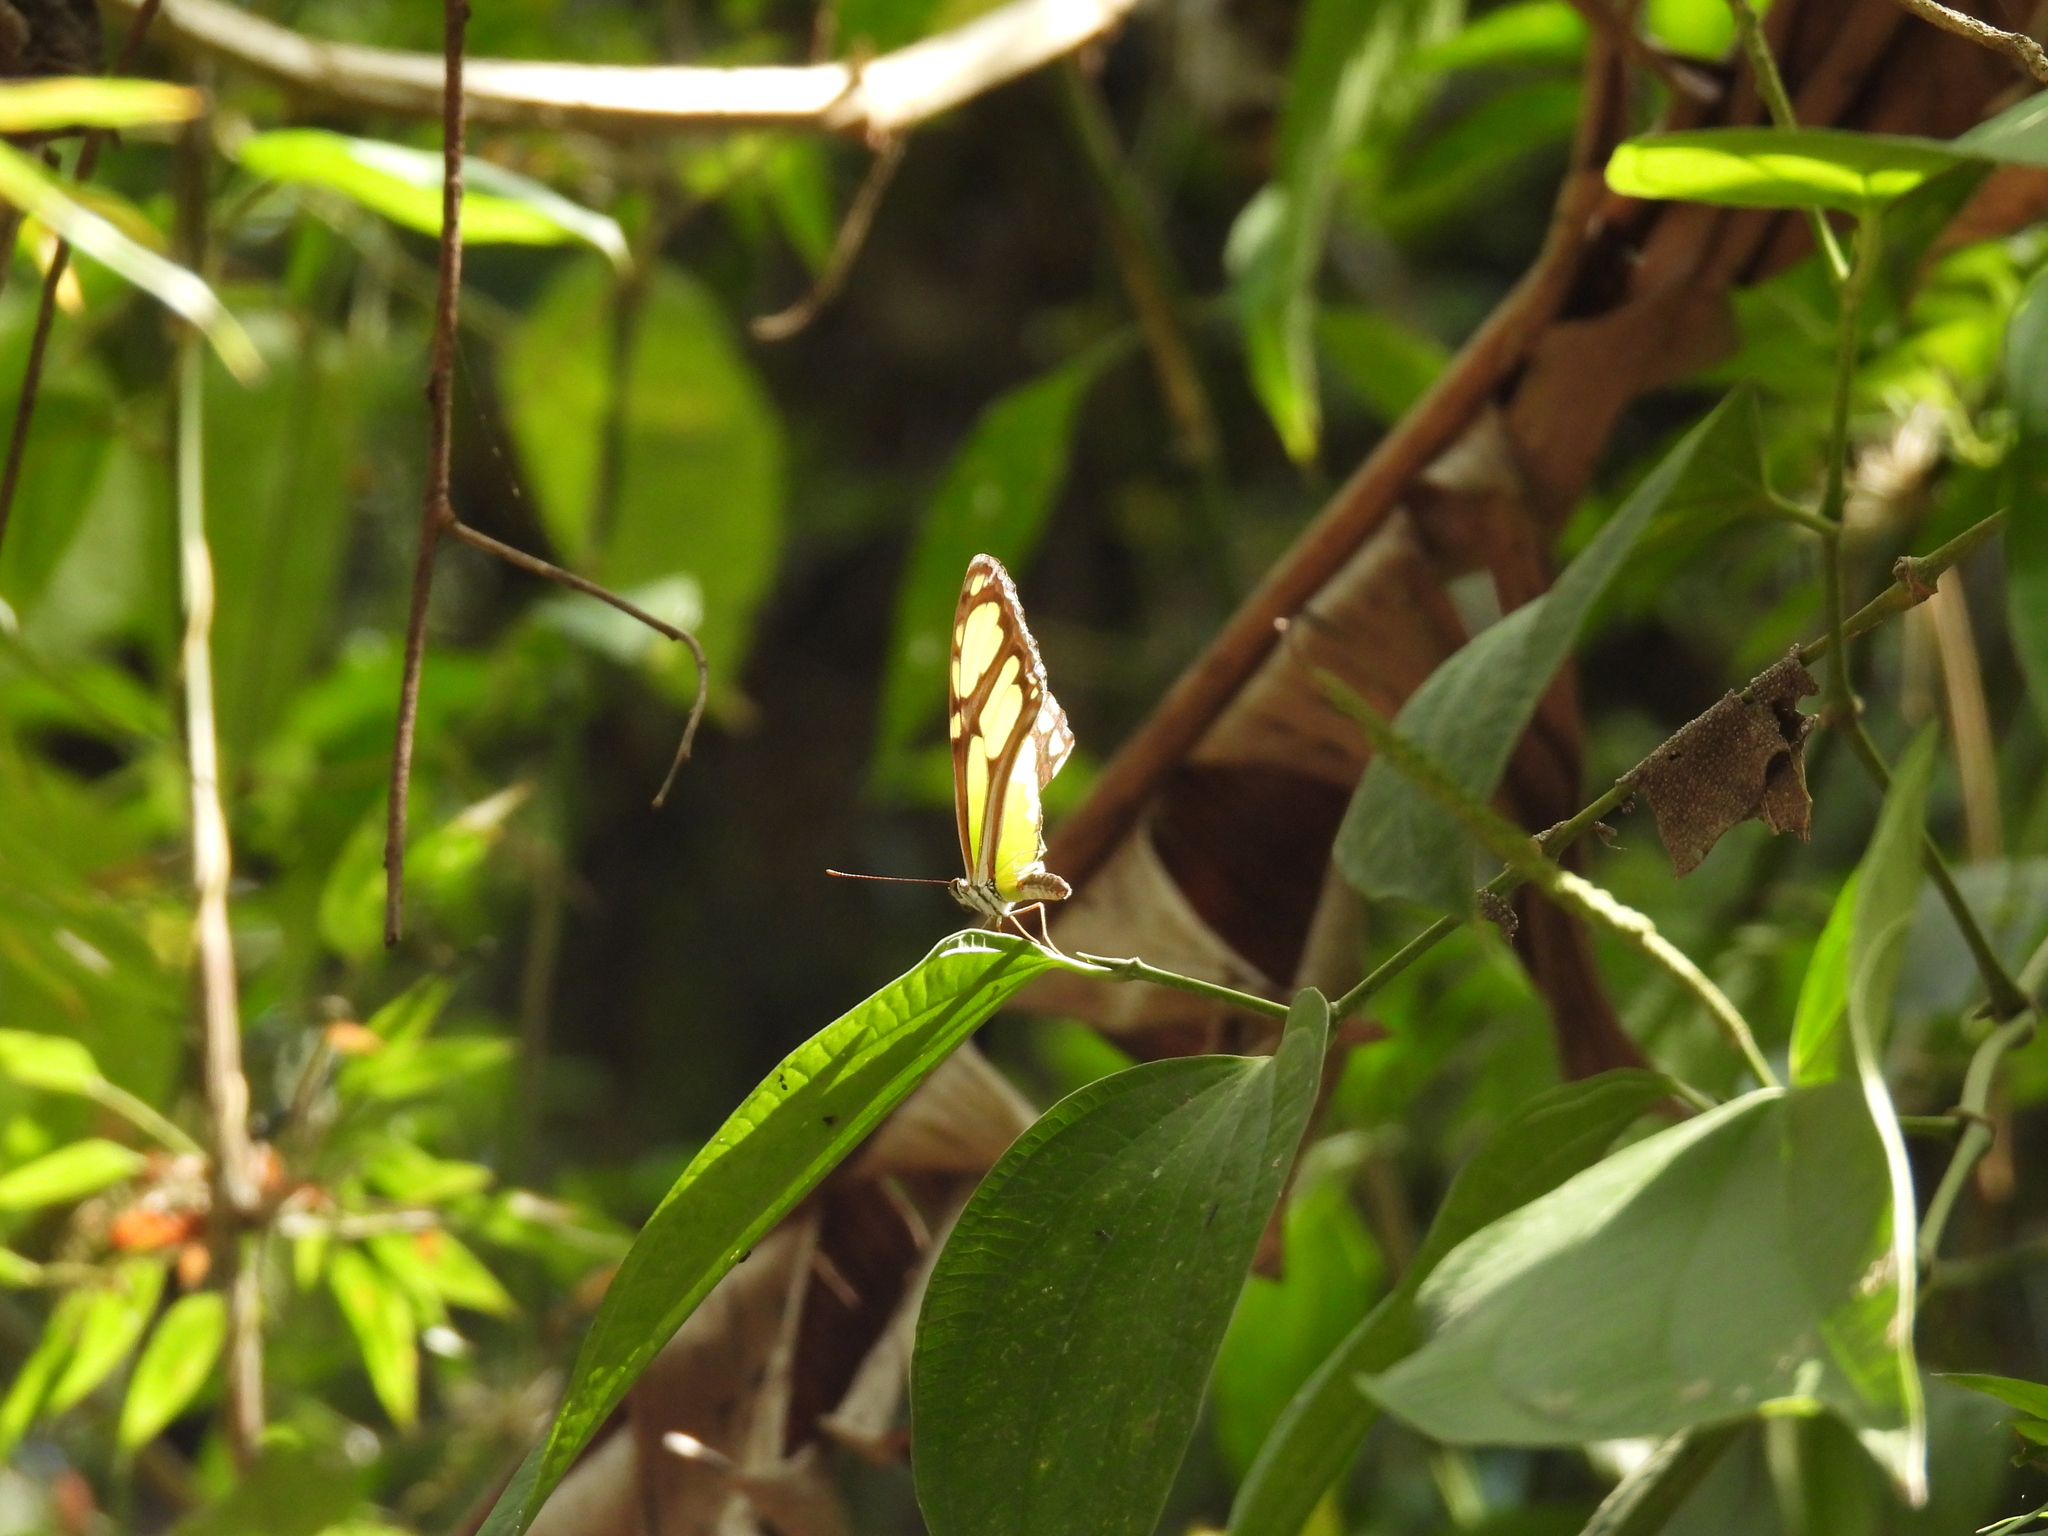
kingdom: Animalia
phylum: Arthropoda
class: Insecta
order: Lepidoptera
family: Nymphalidae
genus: Siproeta
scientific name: Siproeta stelenes
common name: Malachite
